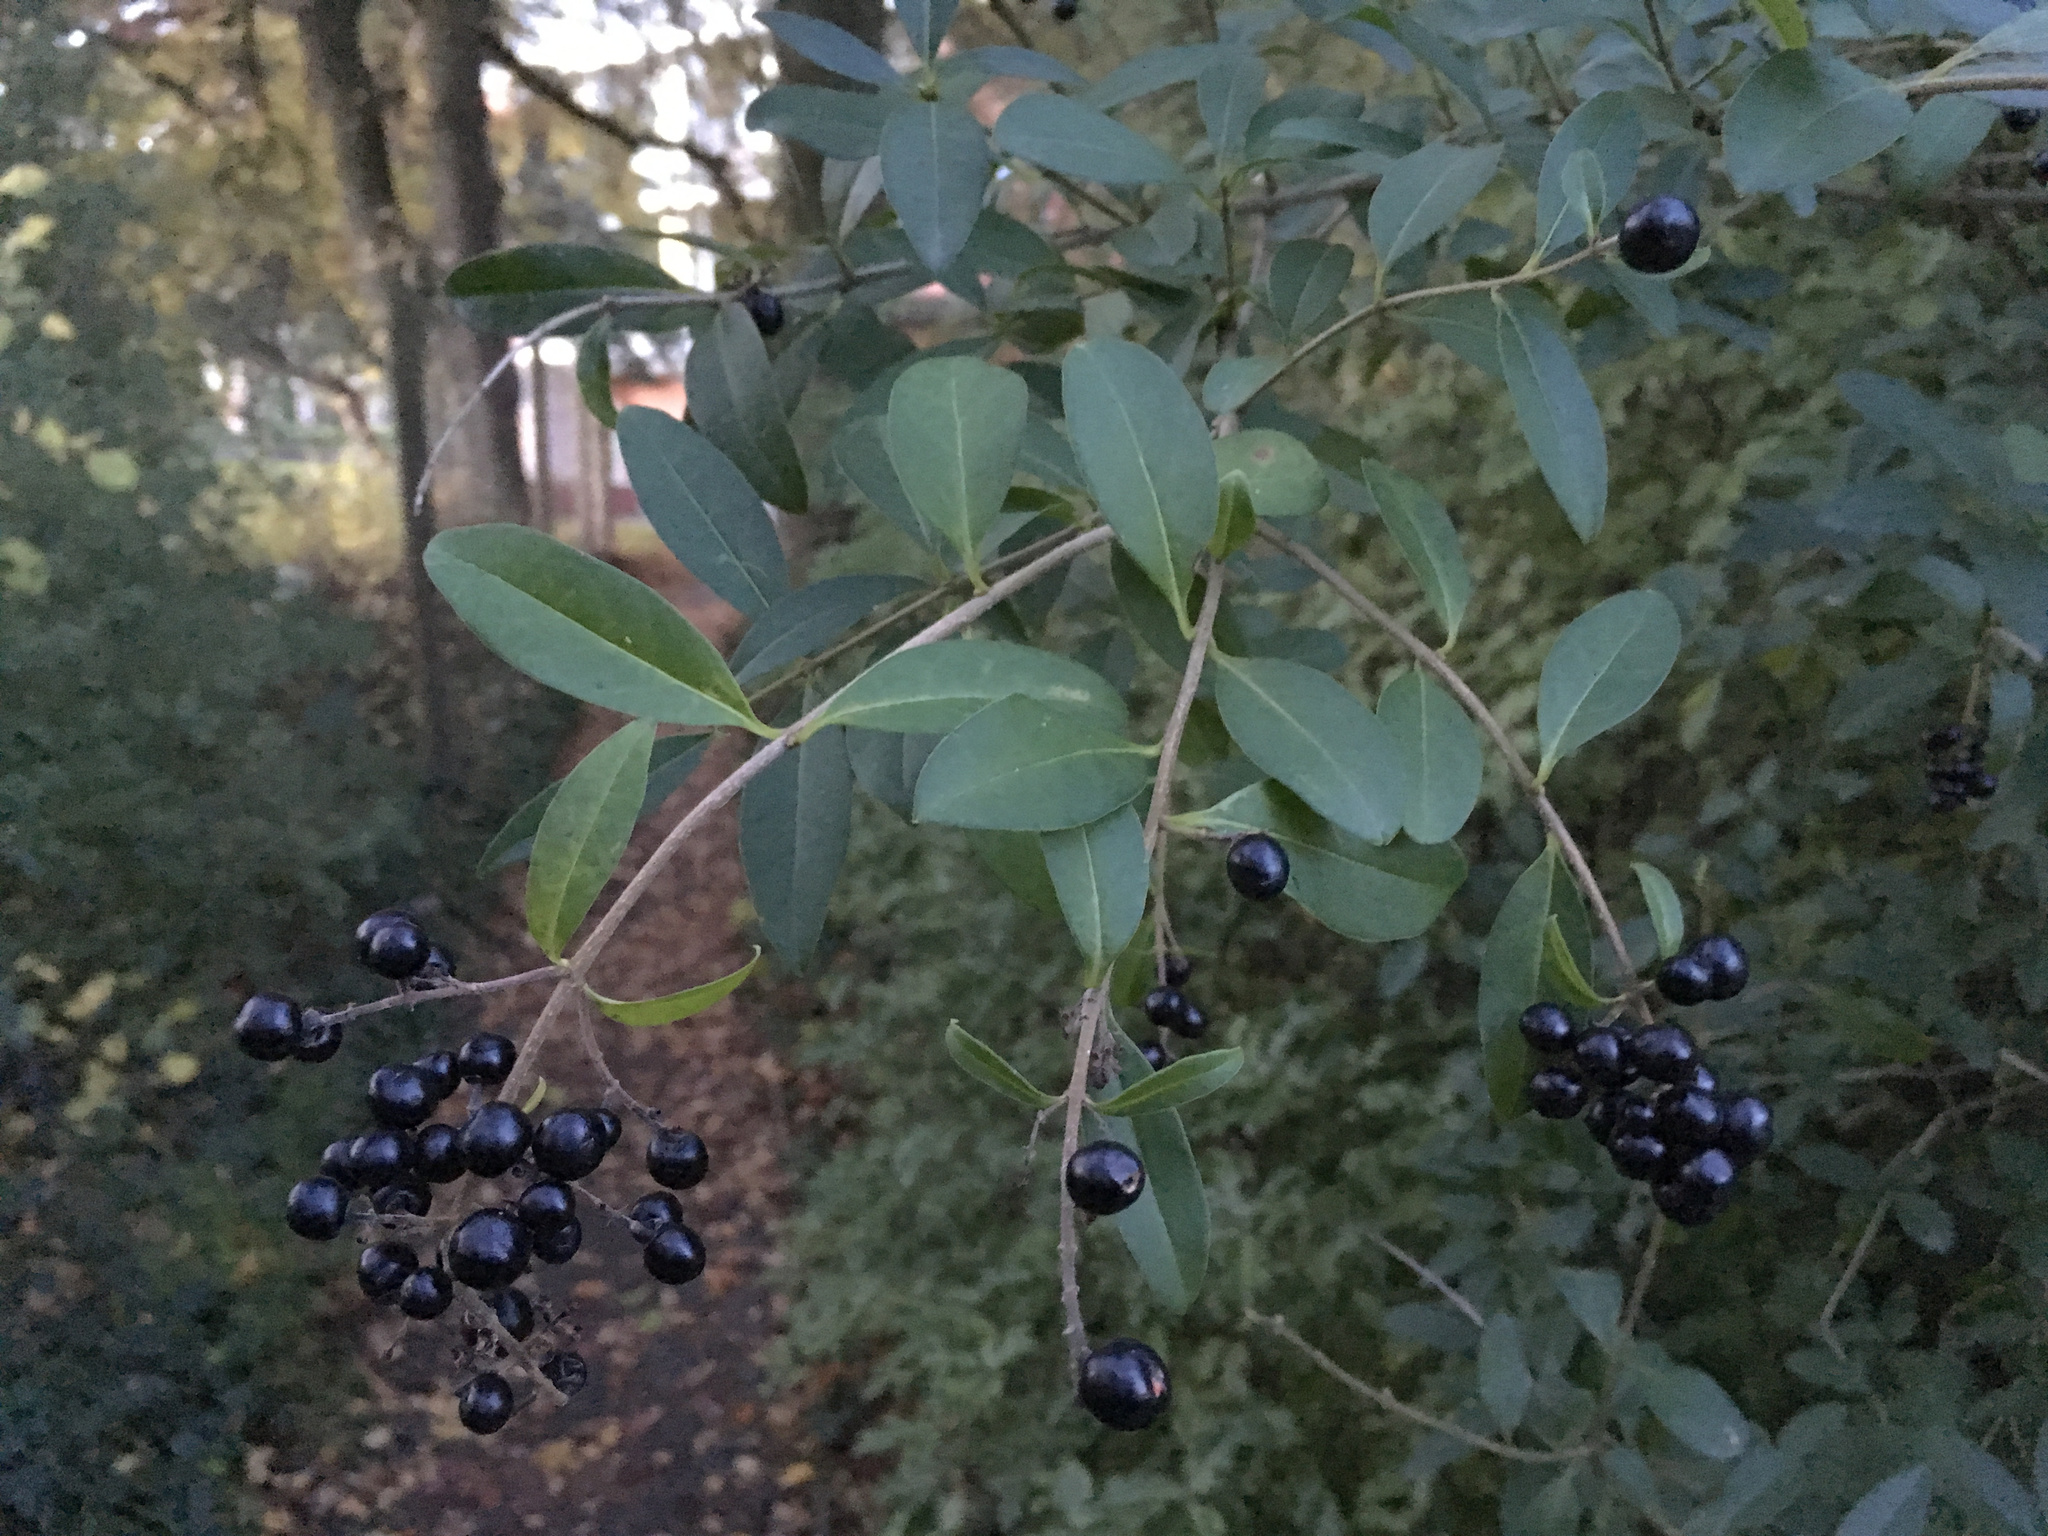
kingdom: Plantae
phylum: Tracheophyta
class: Magnoliopsida
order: Lamiales
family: Oleaceae
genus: Ligustrum
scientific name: Ligustrum vulgare
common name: Wild privet
